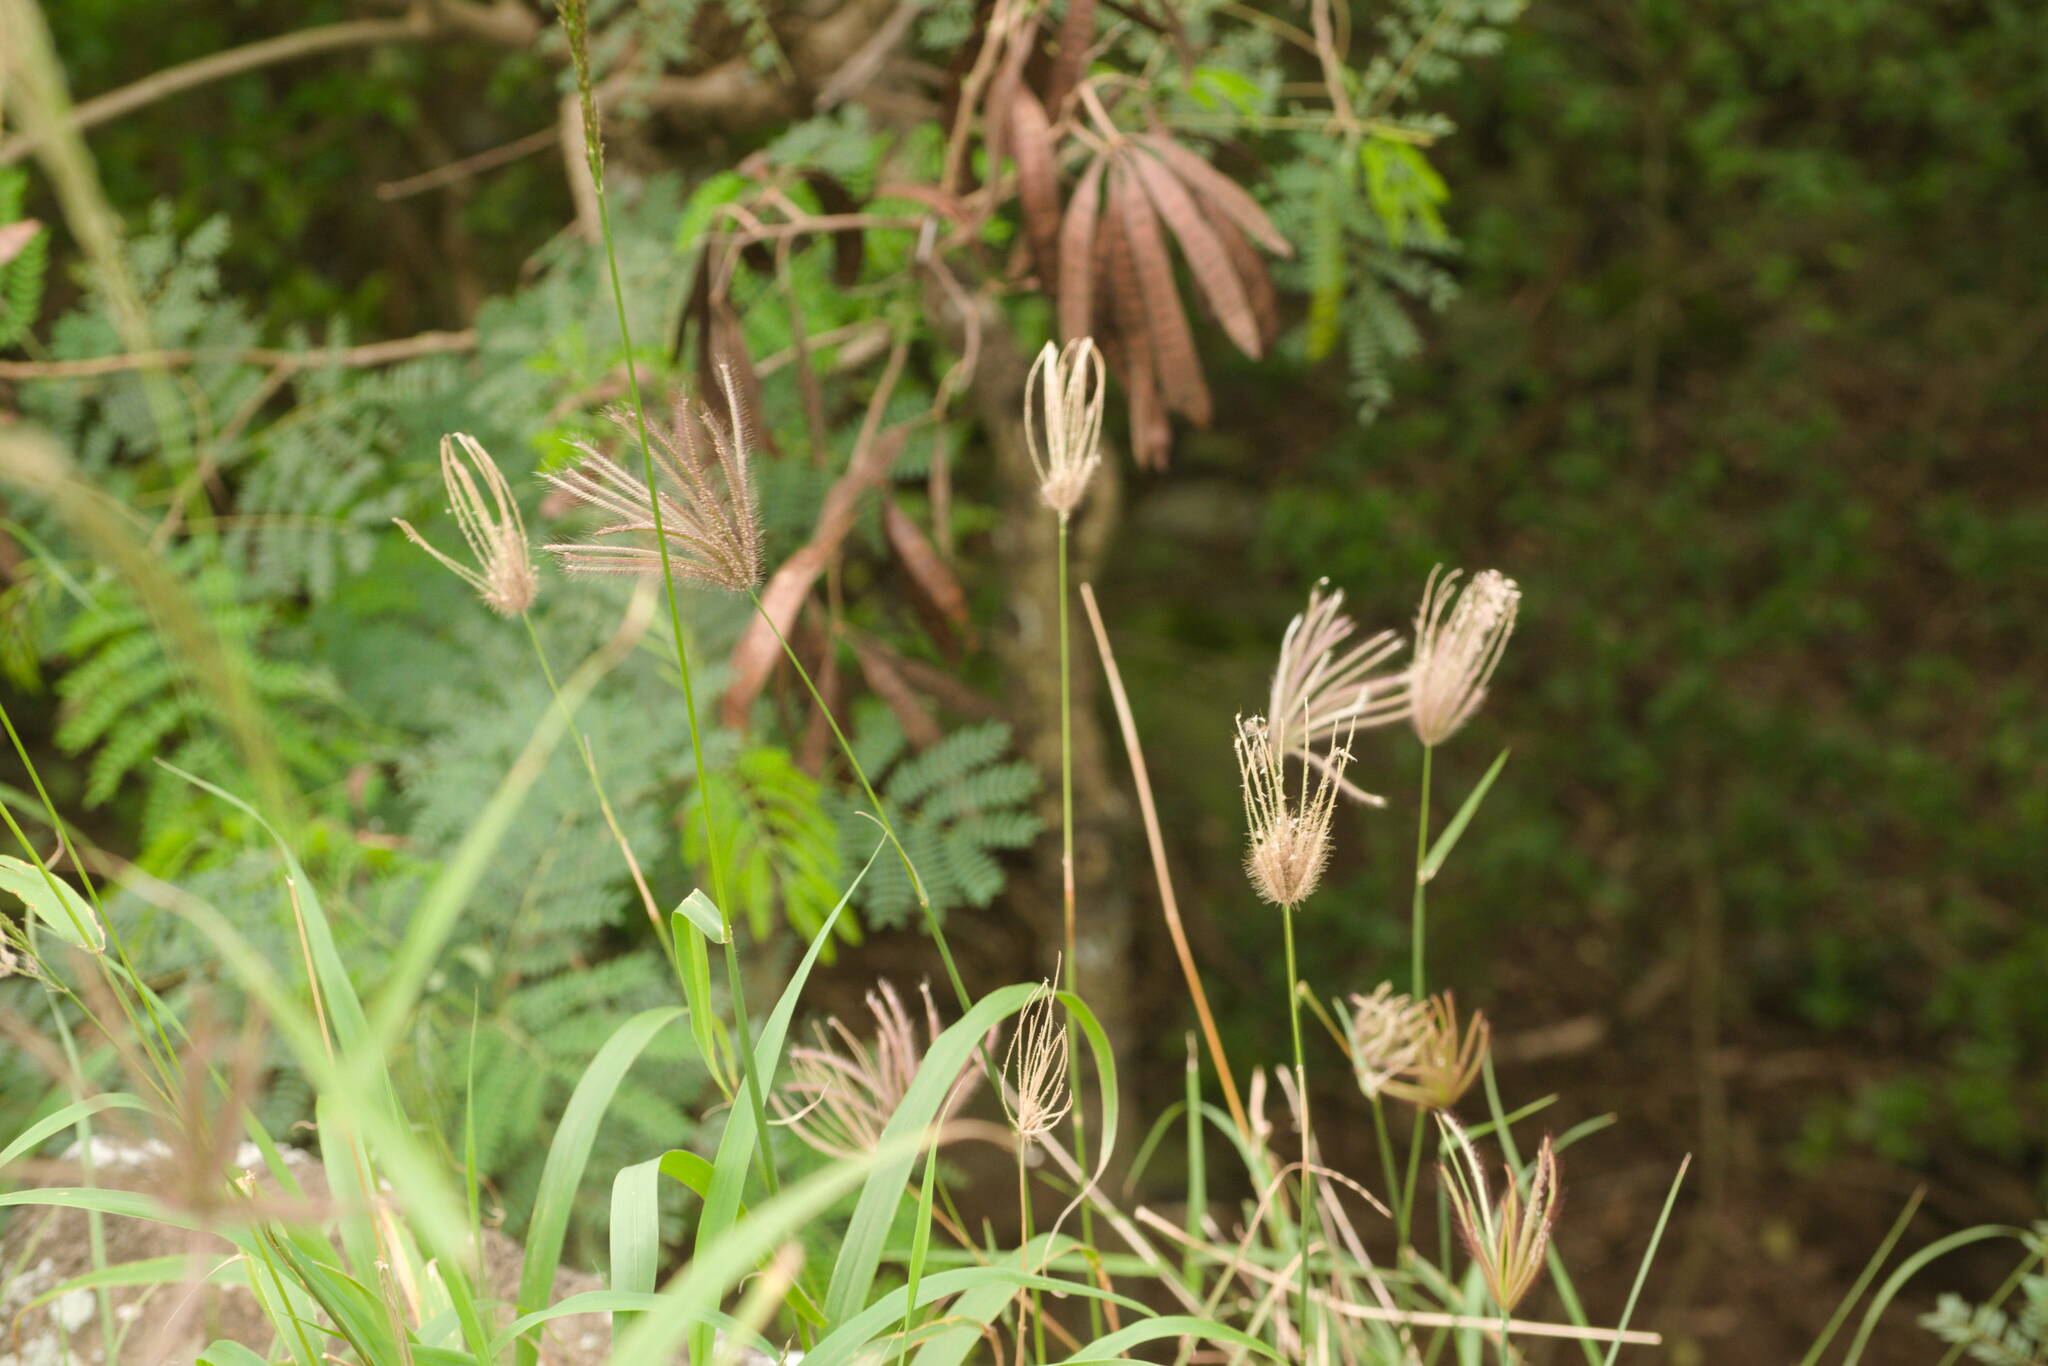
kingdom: Plantae
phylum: Tracheophyta
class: Liliopsida
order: Poales
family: Poaceae
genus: Chloris
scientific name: Chloris barbata
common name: Swollen fingergrass
